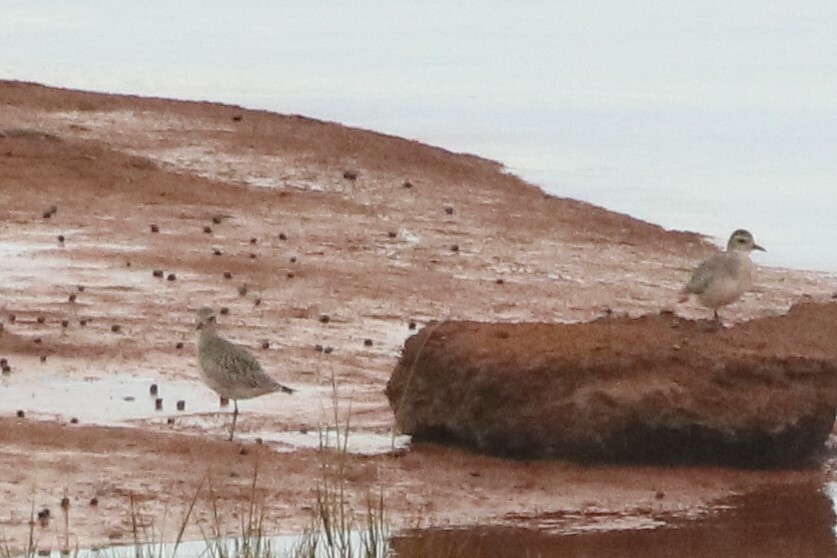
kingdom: Animalia
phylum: Chordata
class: Aves
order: Charadriiformes
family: Charadriidae
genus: Pluvialis
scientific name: Pluvialis squatarola
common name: Grey plover
